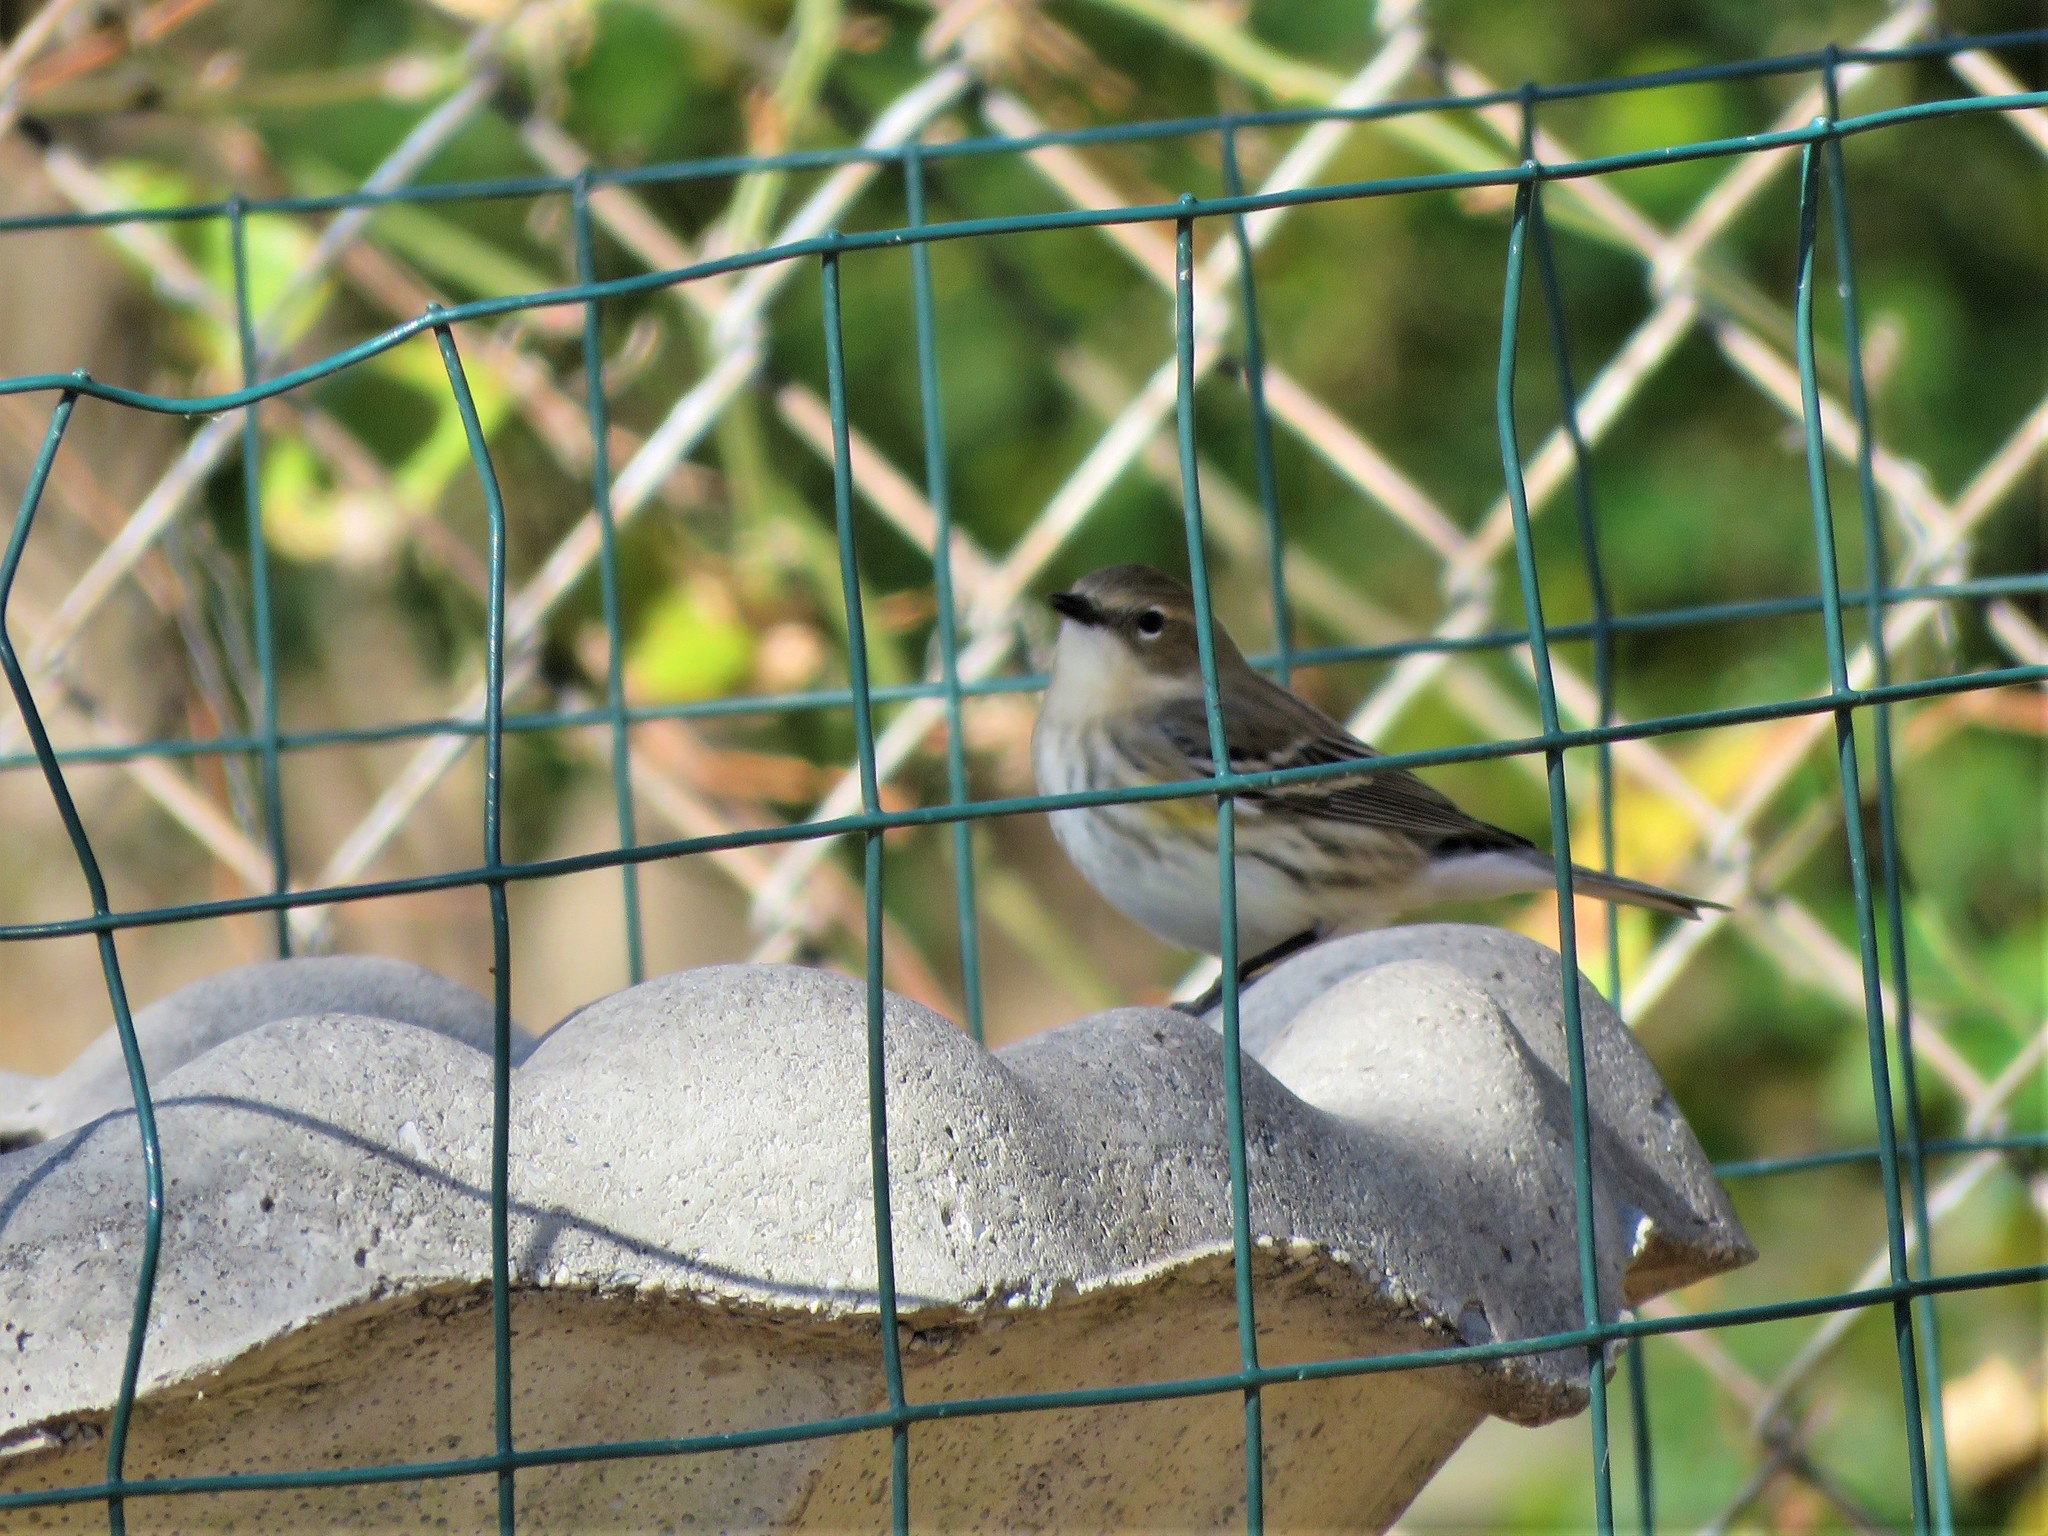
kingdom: Animalia
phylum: Chordata
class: Aves
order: Passeriformes
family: Parulidae
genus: Setophaga
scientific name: Setophaga coronata
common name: Myrtle warbler
